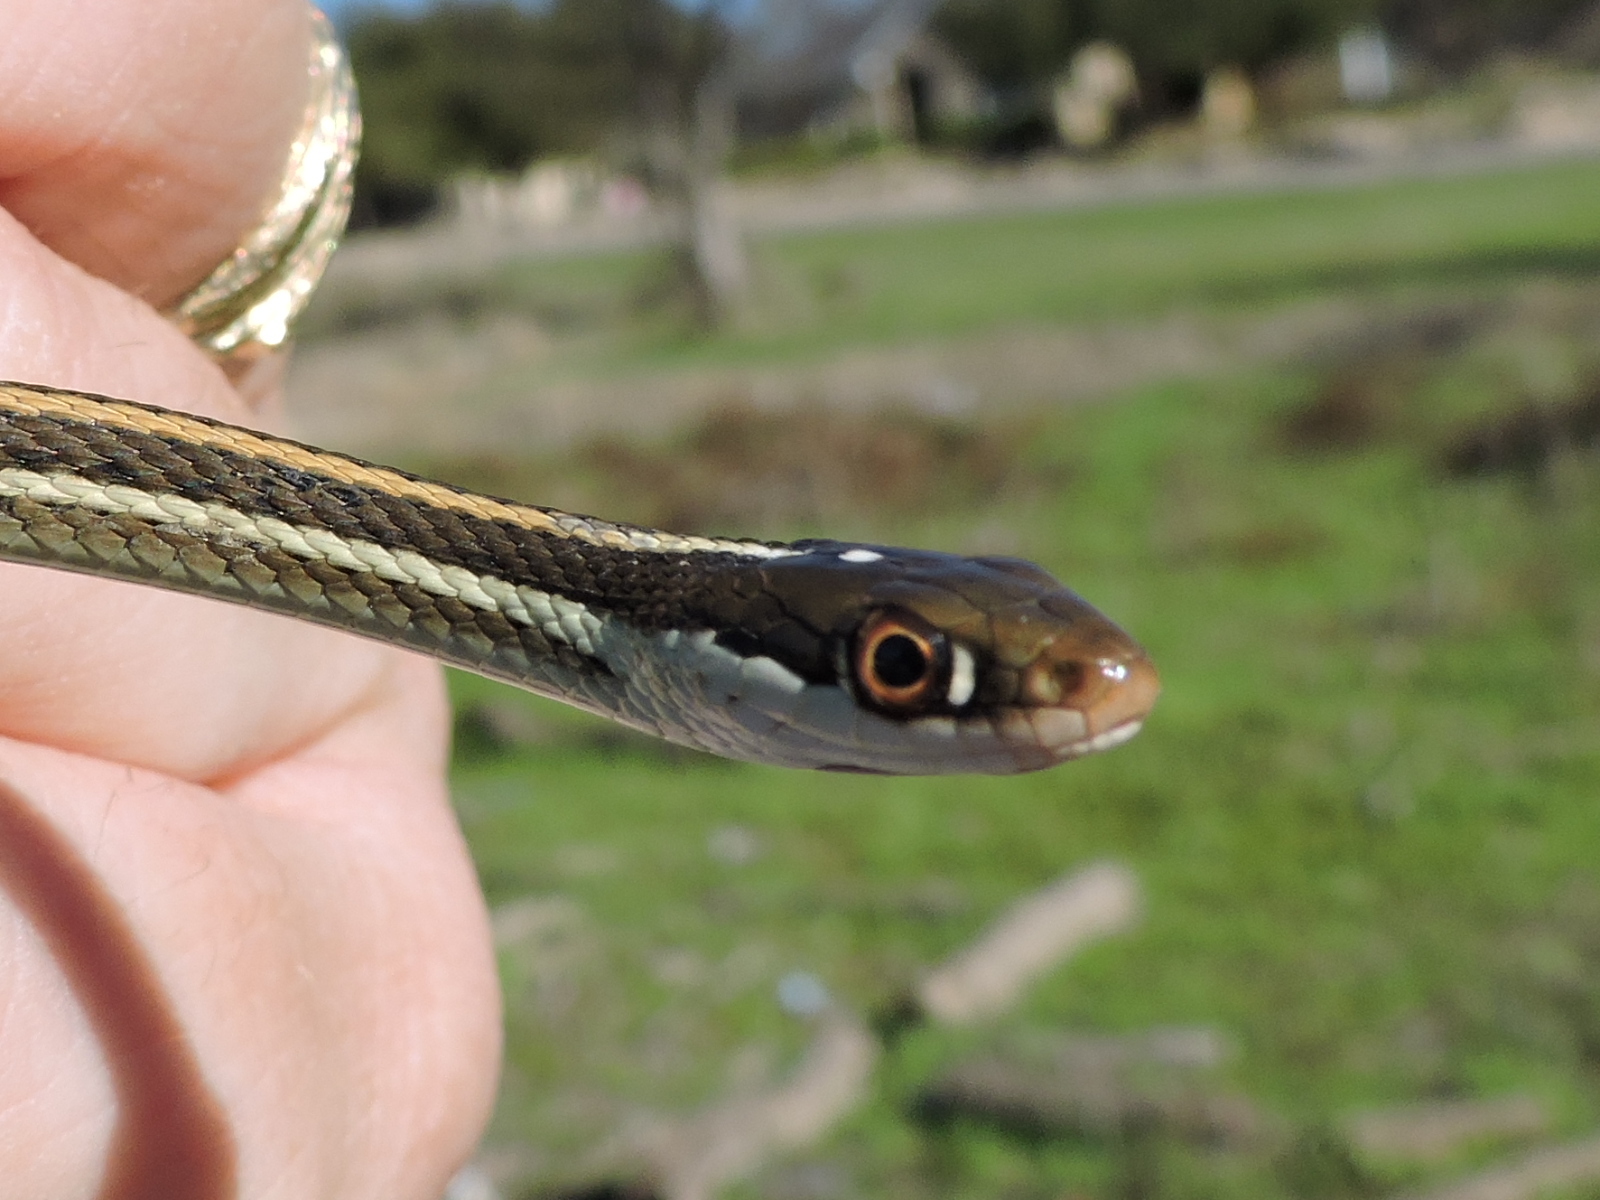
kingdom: Animalia
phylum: Chordata
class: Squamata
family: Colubridae
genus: Thamnophis
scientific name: Thamnophis proximus
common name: Western ribbon snake
